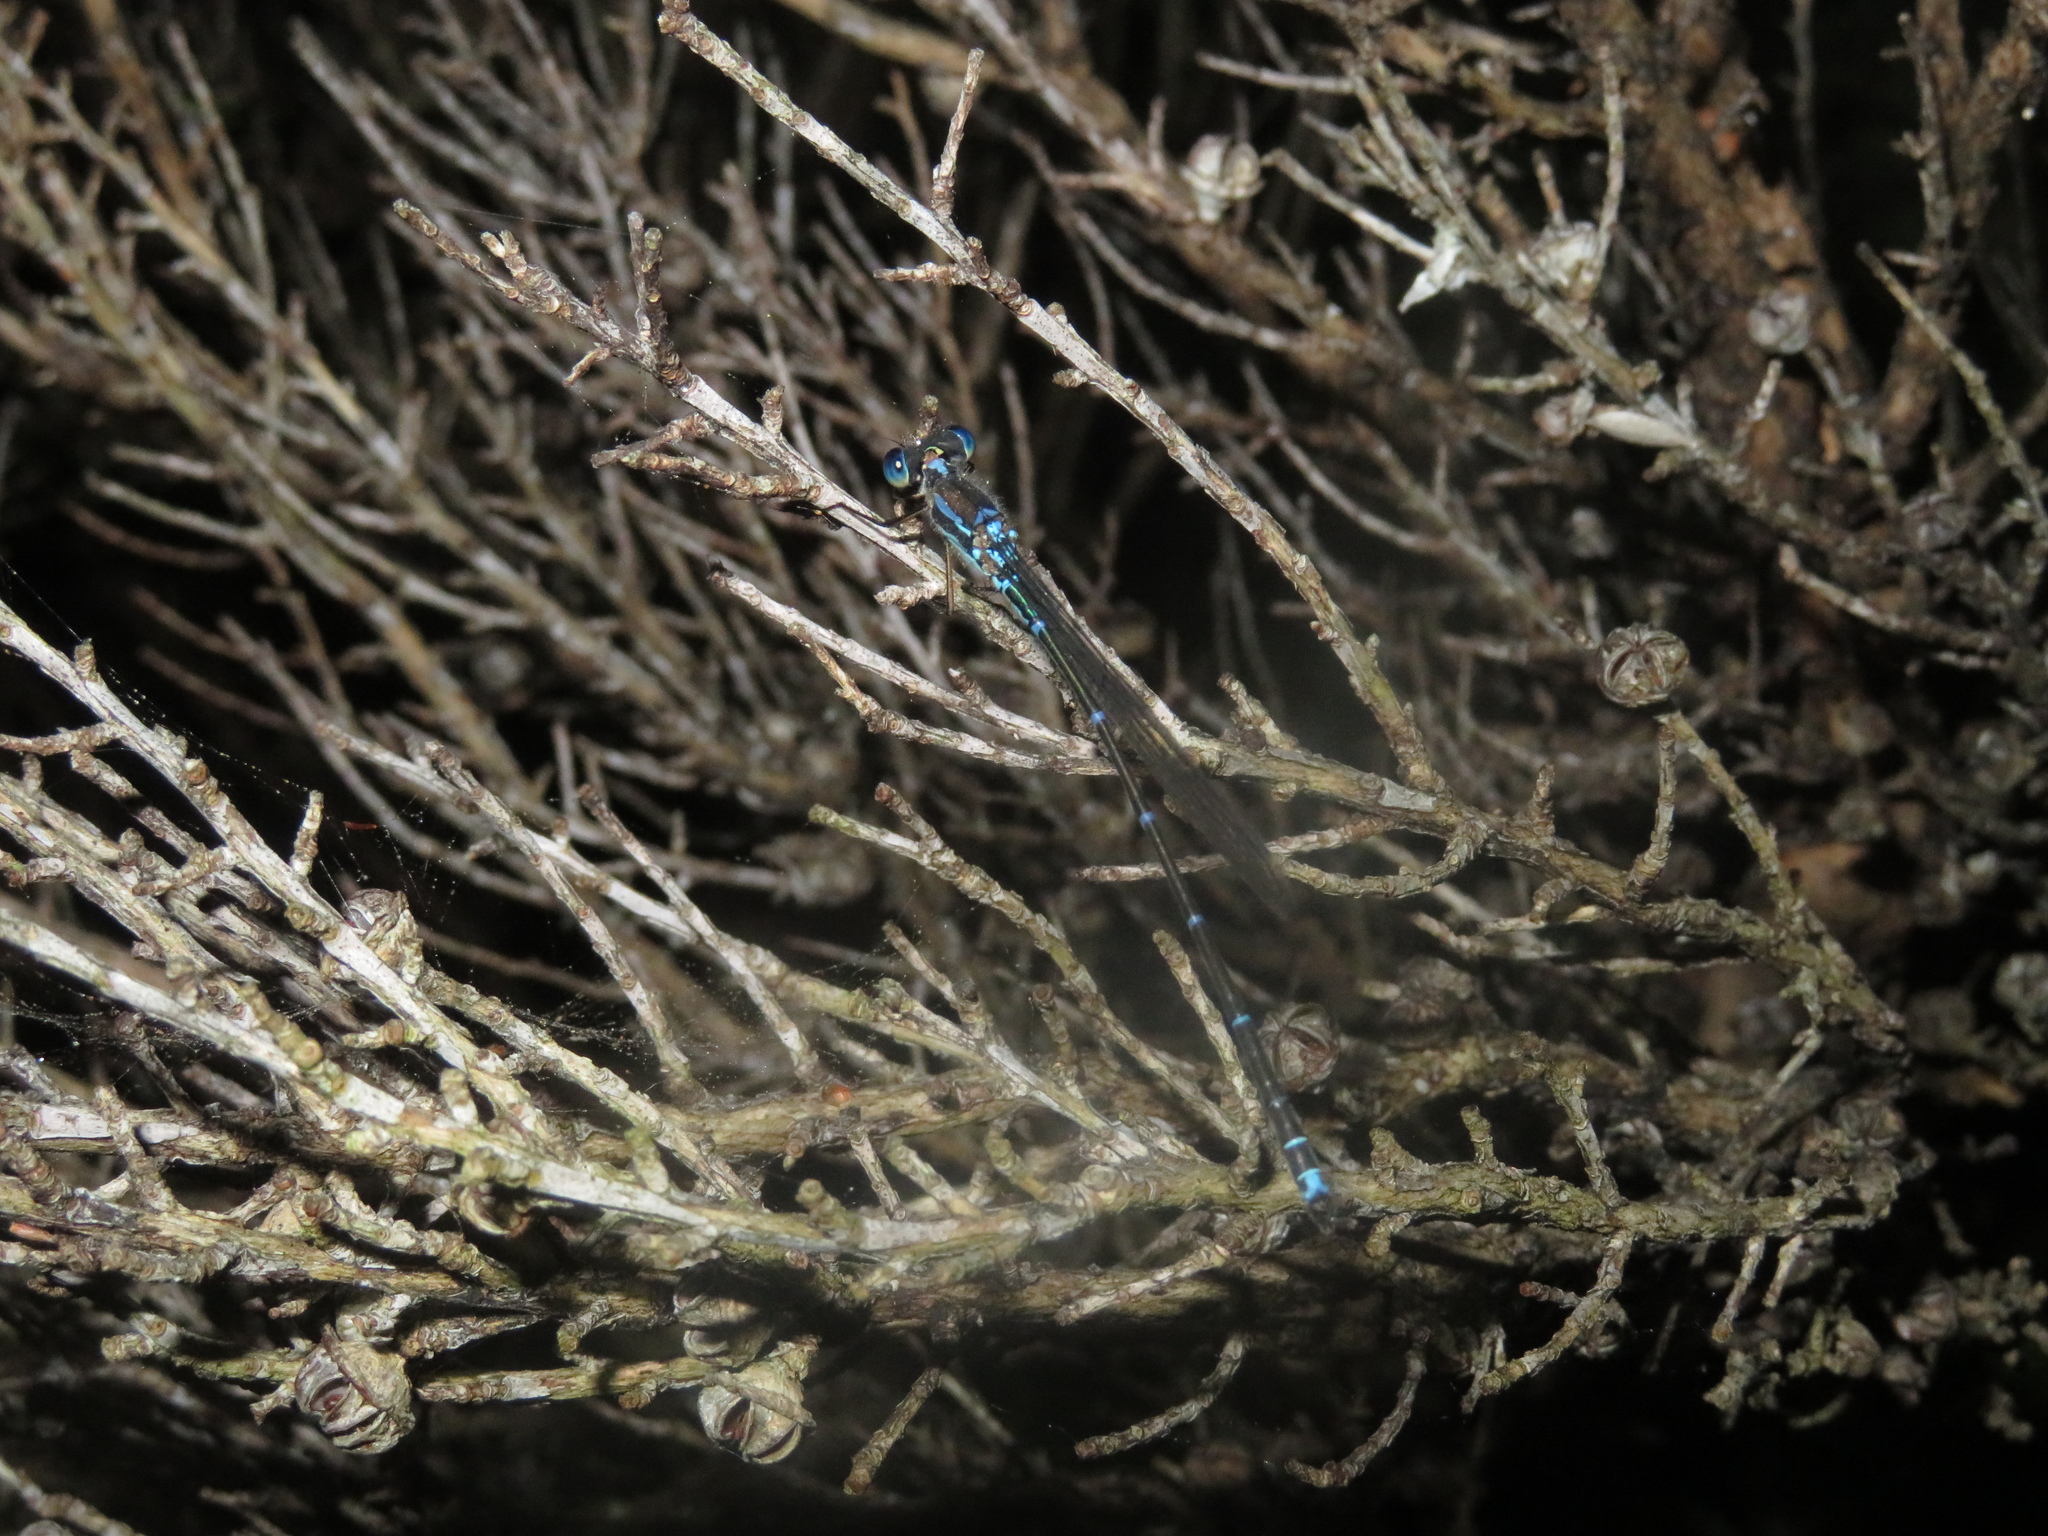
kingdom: Animalia
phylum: Arthropoda
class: Insecta
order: Odonata
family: Lestidae
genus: Austrolestes
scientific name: Austrolestes colensonis
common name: Blue damselfly
